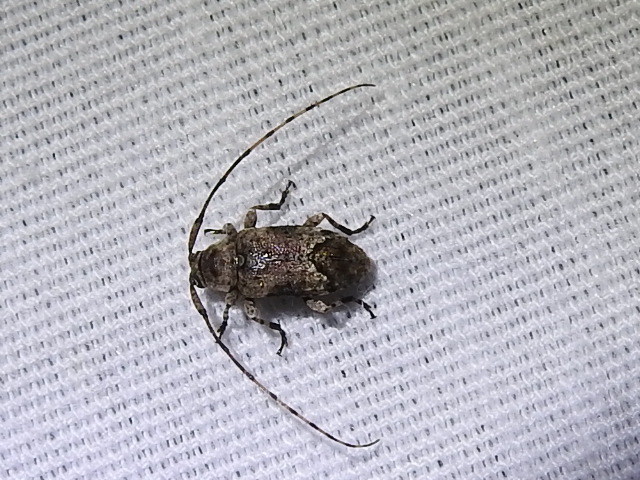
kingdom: Animalia
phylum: Arthropoda
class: Insecta
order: Coleoptera
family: Cerambycidae
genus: Sternidius
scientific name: Sternidius alpha
